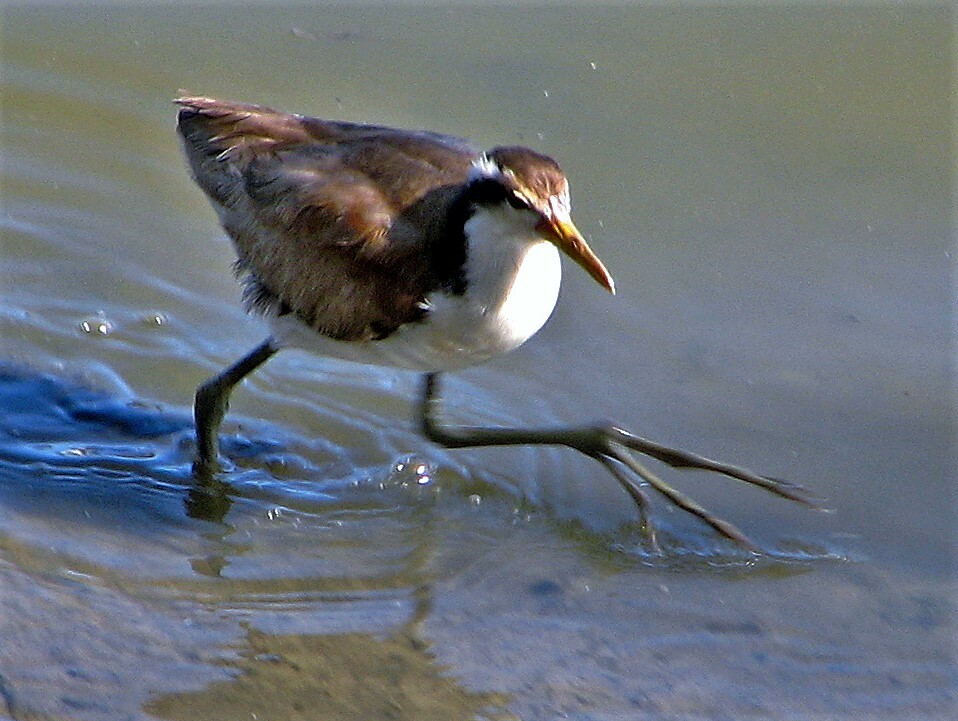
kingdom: Animalia
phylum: Chordata
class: Aves
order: Charadriiformes
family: Jacanidae
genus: Jacana
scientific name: Jacana jacana
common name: Wattled jacana
